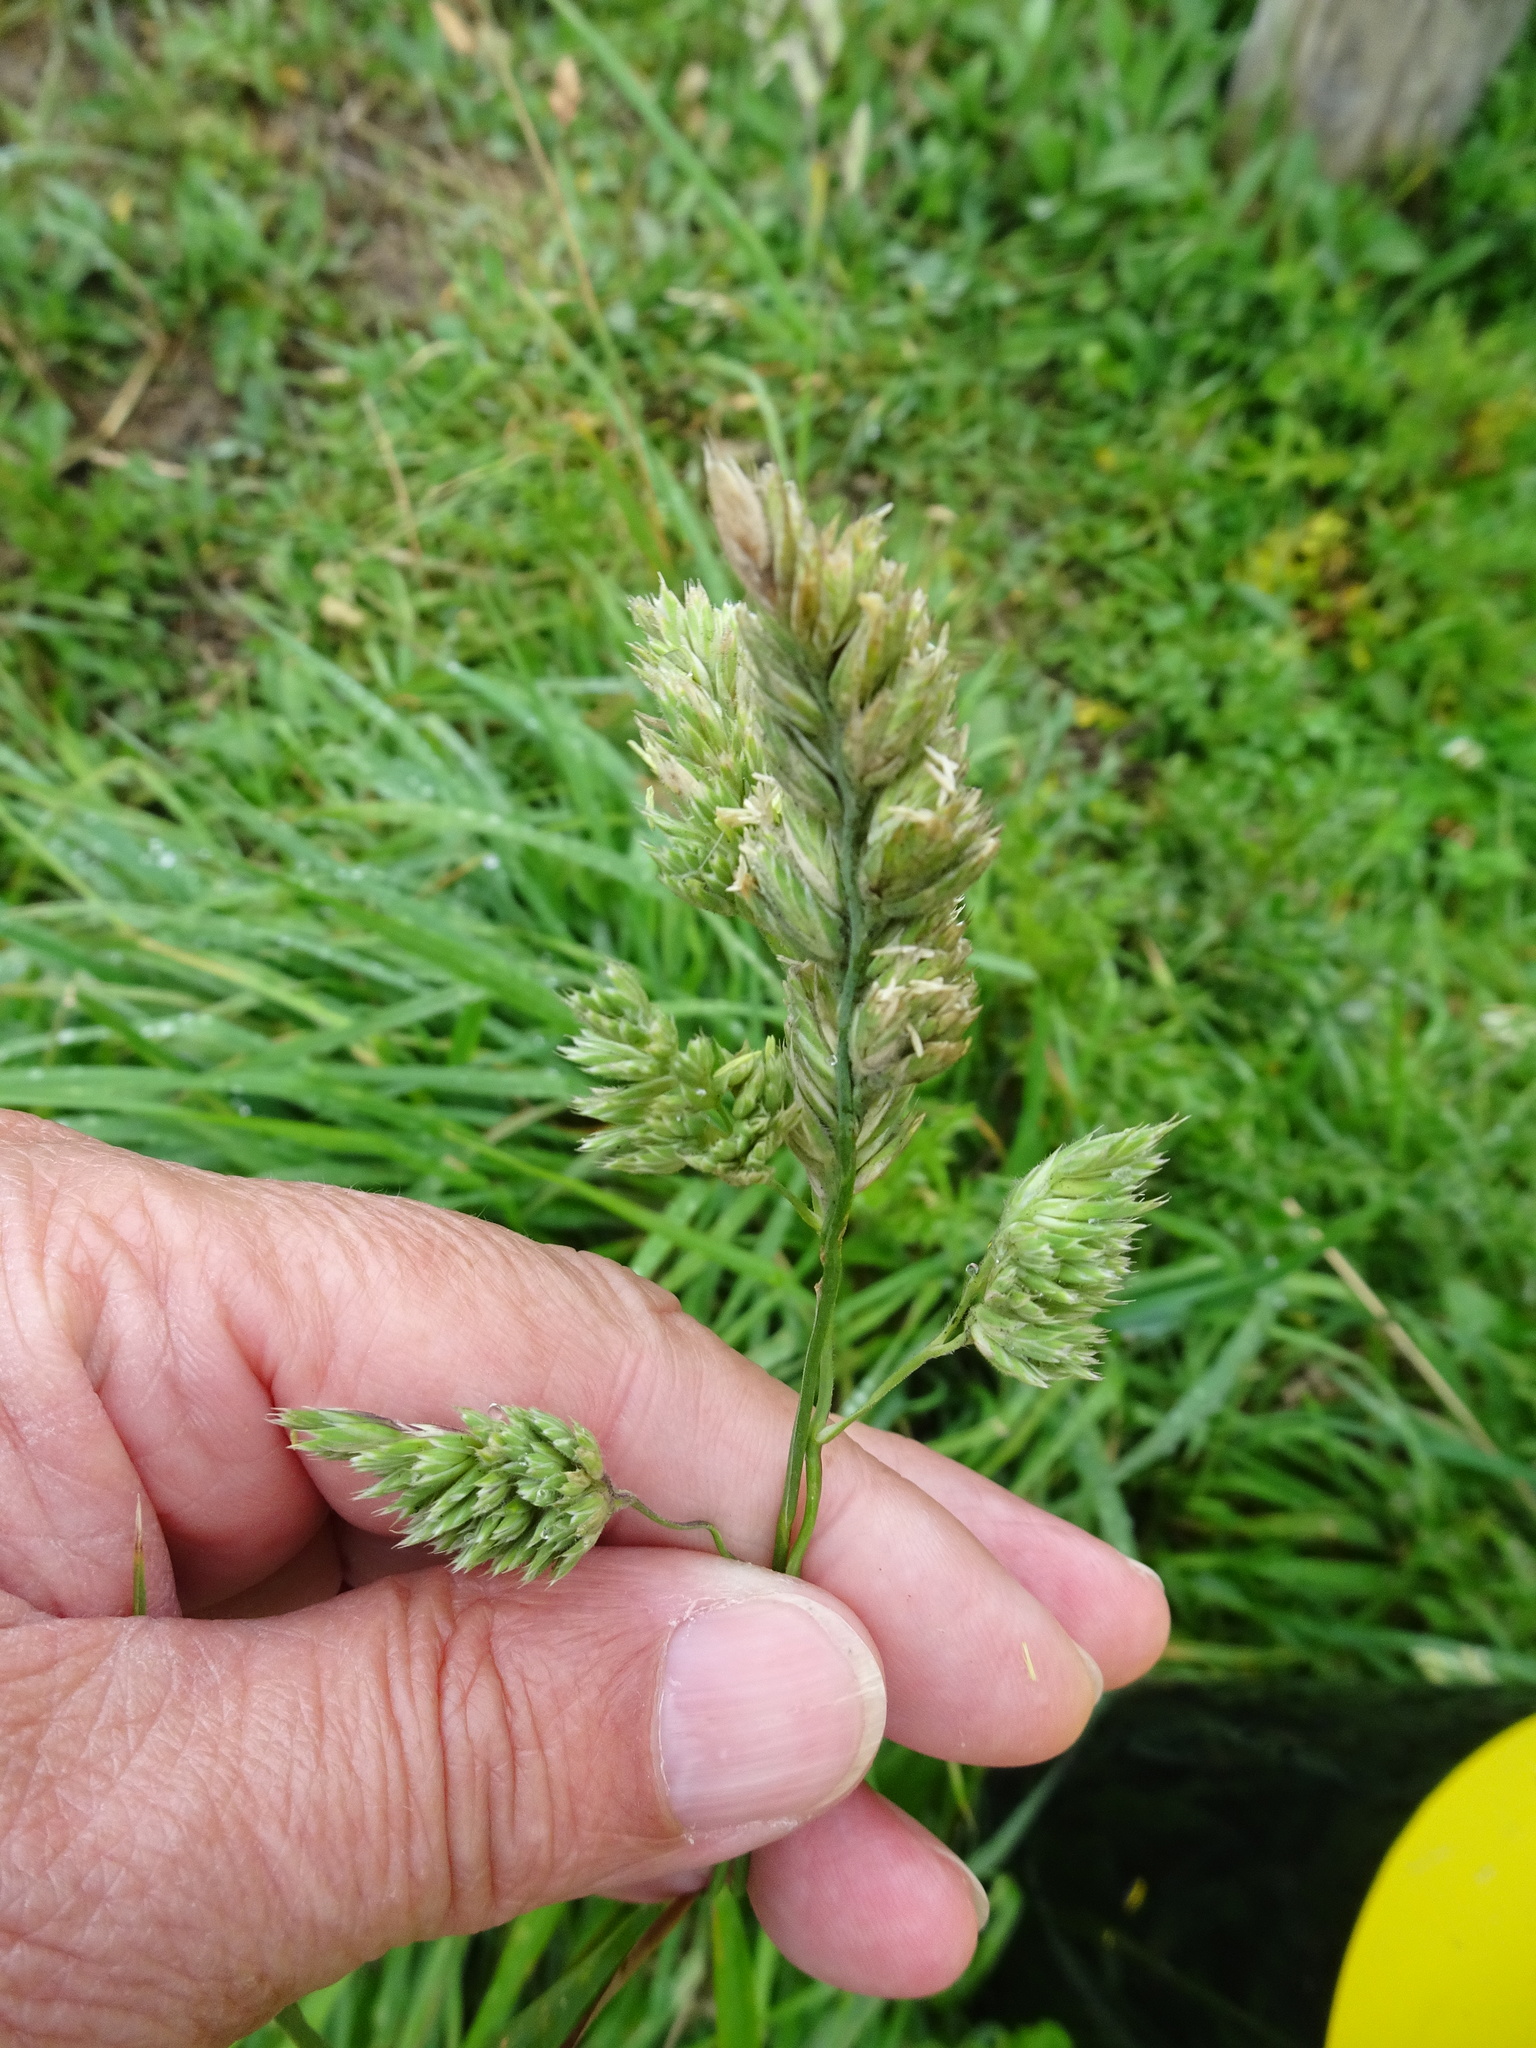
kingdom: Plantae
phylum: Tracheophyta
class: Liliopsida
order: Poales
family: Poaceae
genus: Dactylis
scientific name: Dactylis glomerata
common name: Orchardgrass
